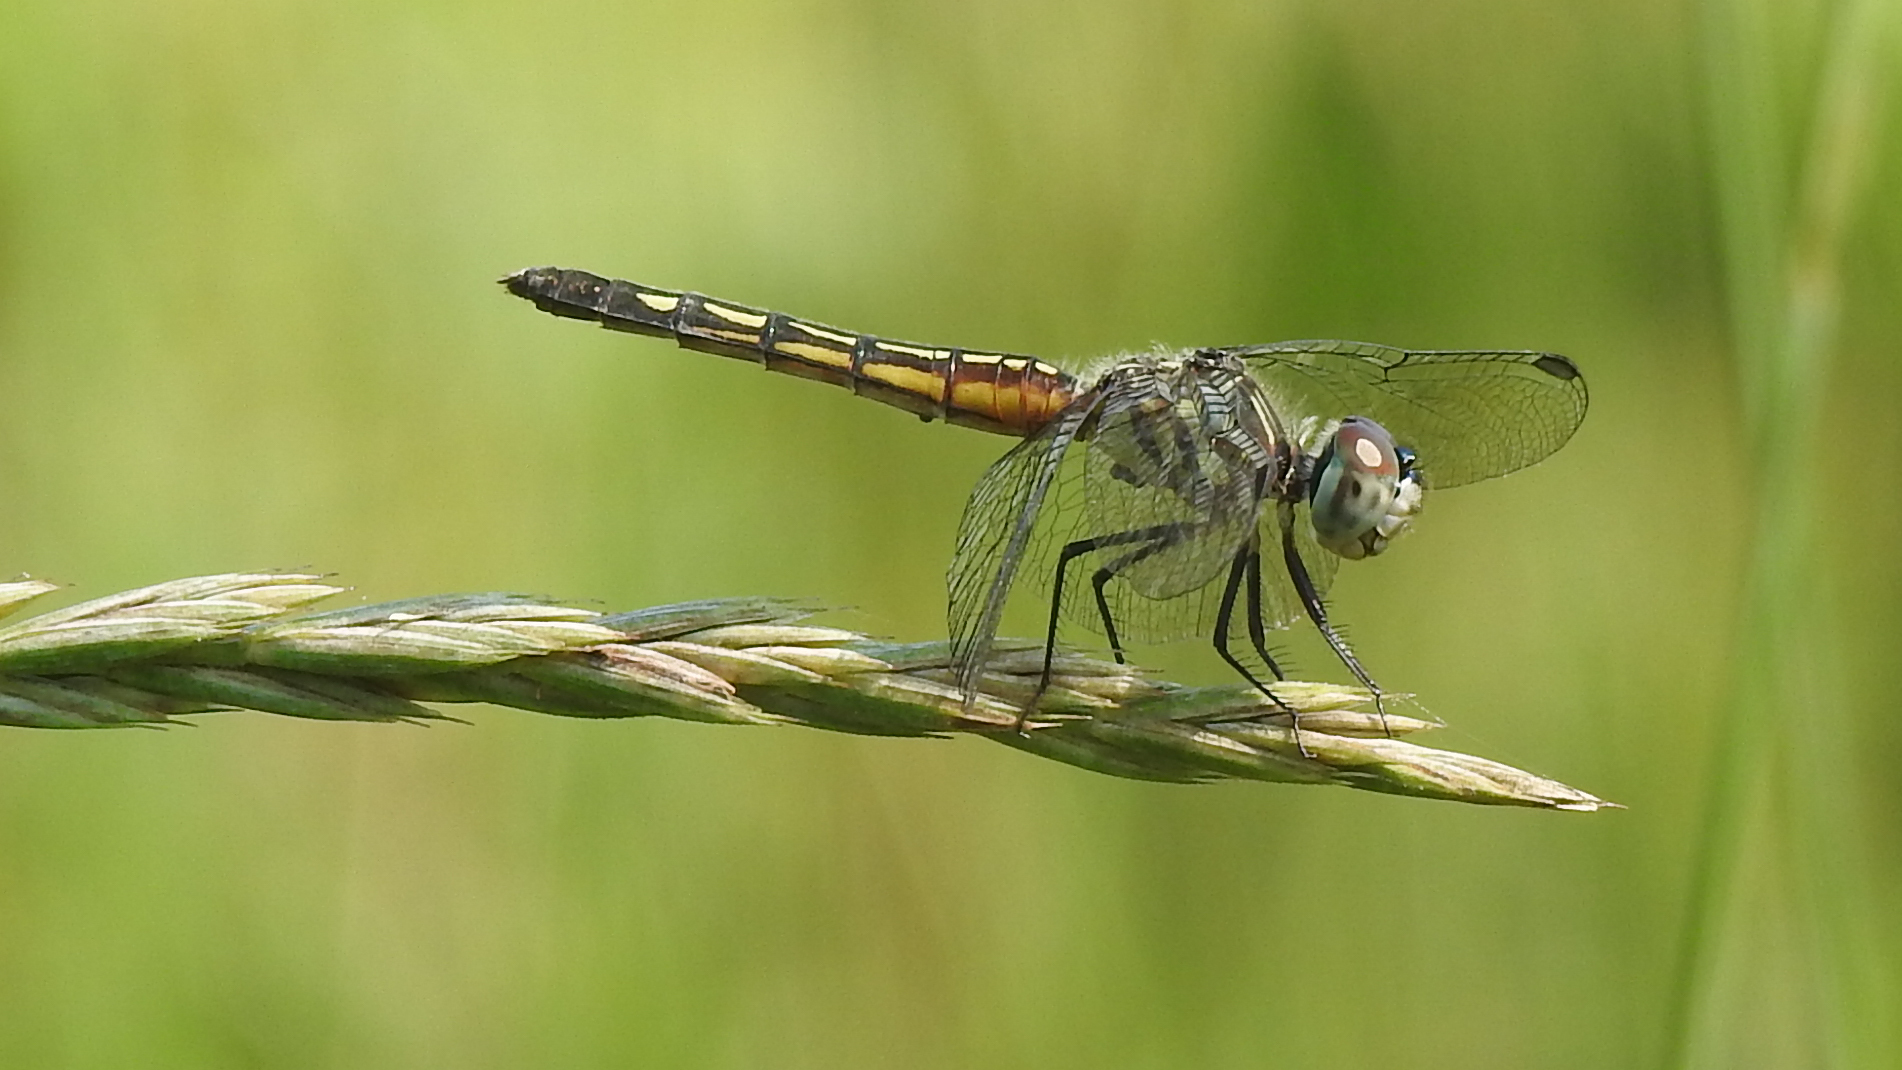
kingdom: Animalia
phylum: Arthropoda
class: Insecta
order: Odonata
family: Libellulidae
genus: Pachydiplax
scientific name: Pachydiplax longipennis
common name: Blue dasher
